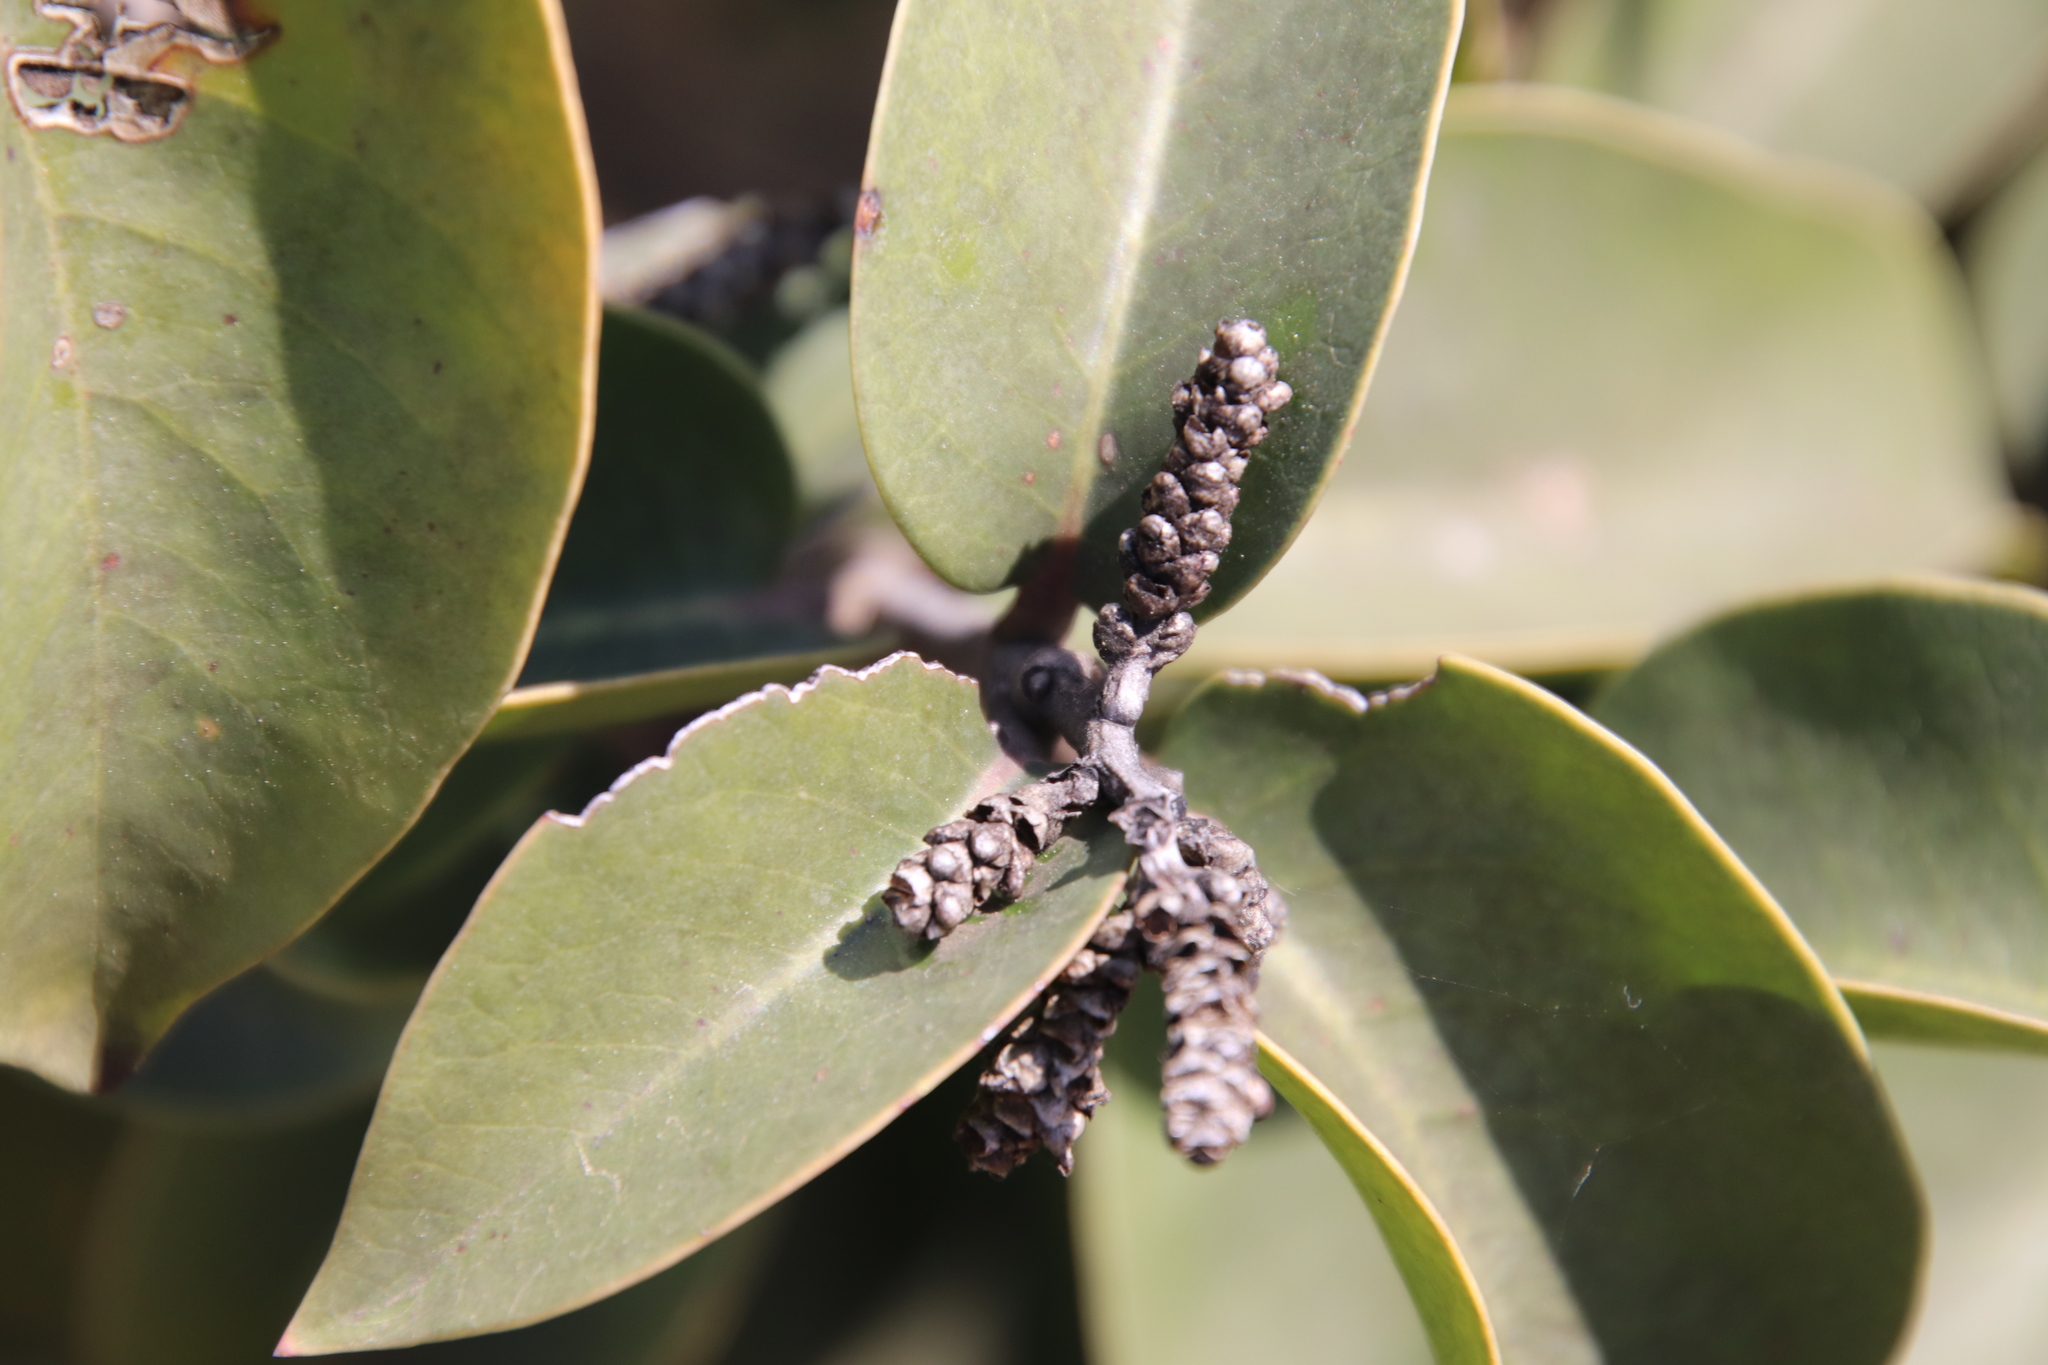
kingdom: Plantae
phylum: Tracheophyta
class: Magnoliopsida
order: Sapindales
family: Anacardiaceae
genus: Rhus
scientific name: Rhus ovata
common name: Sugar sumac
